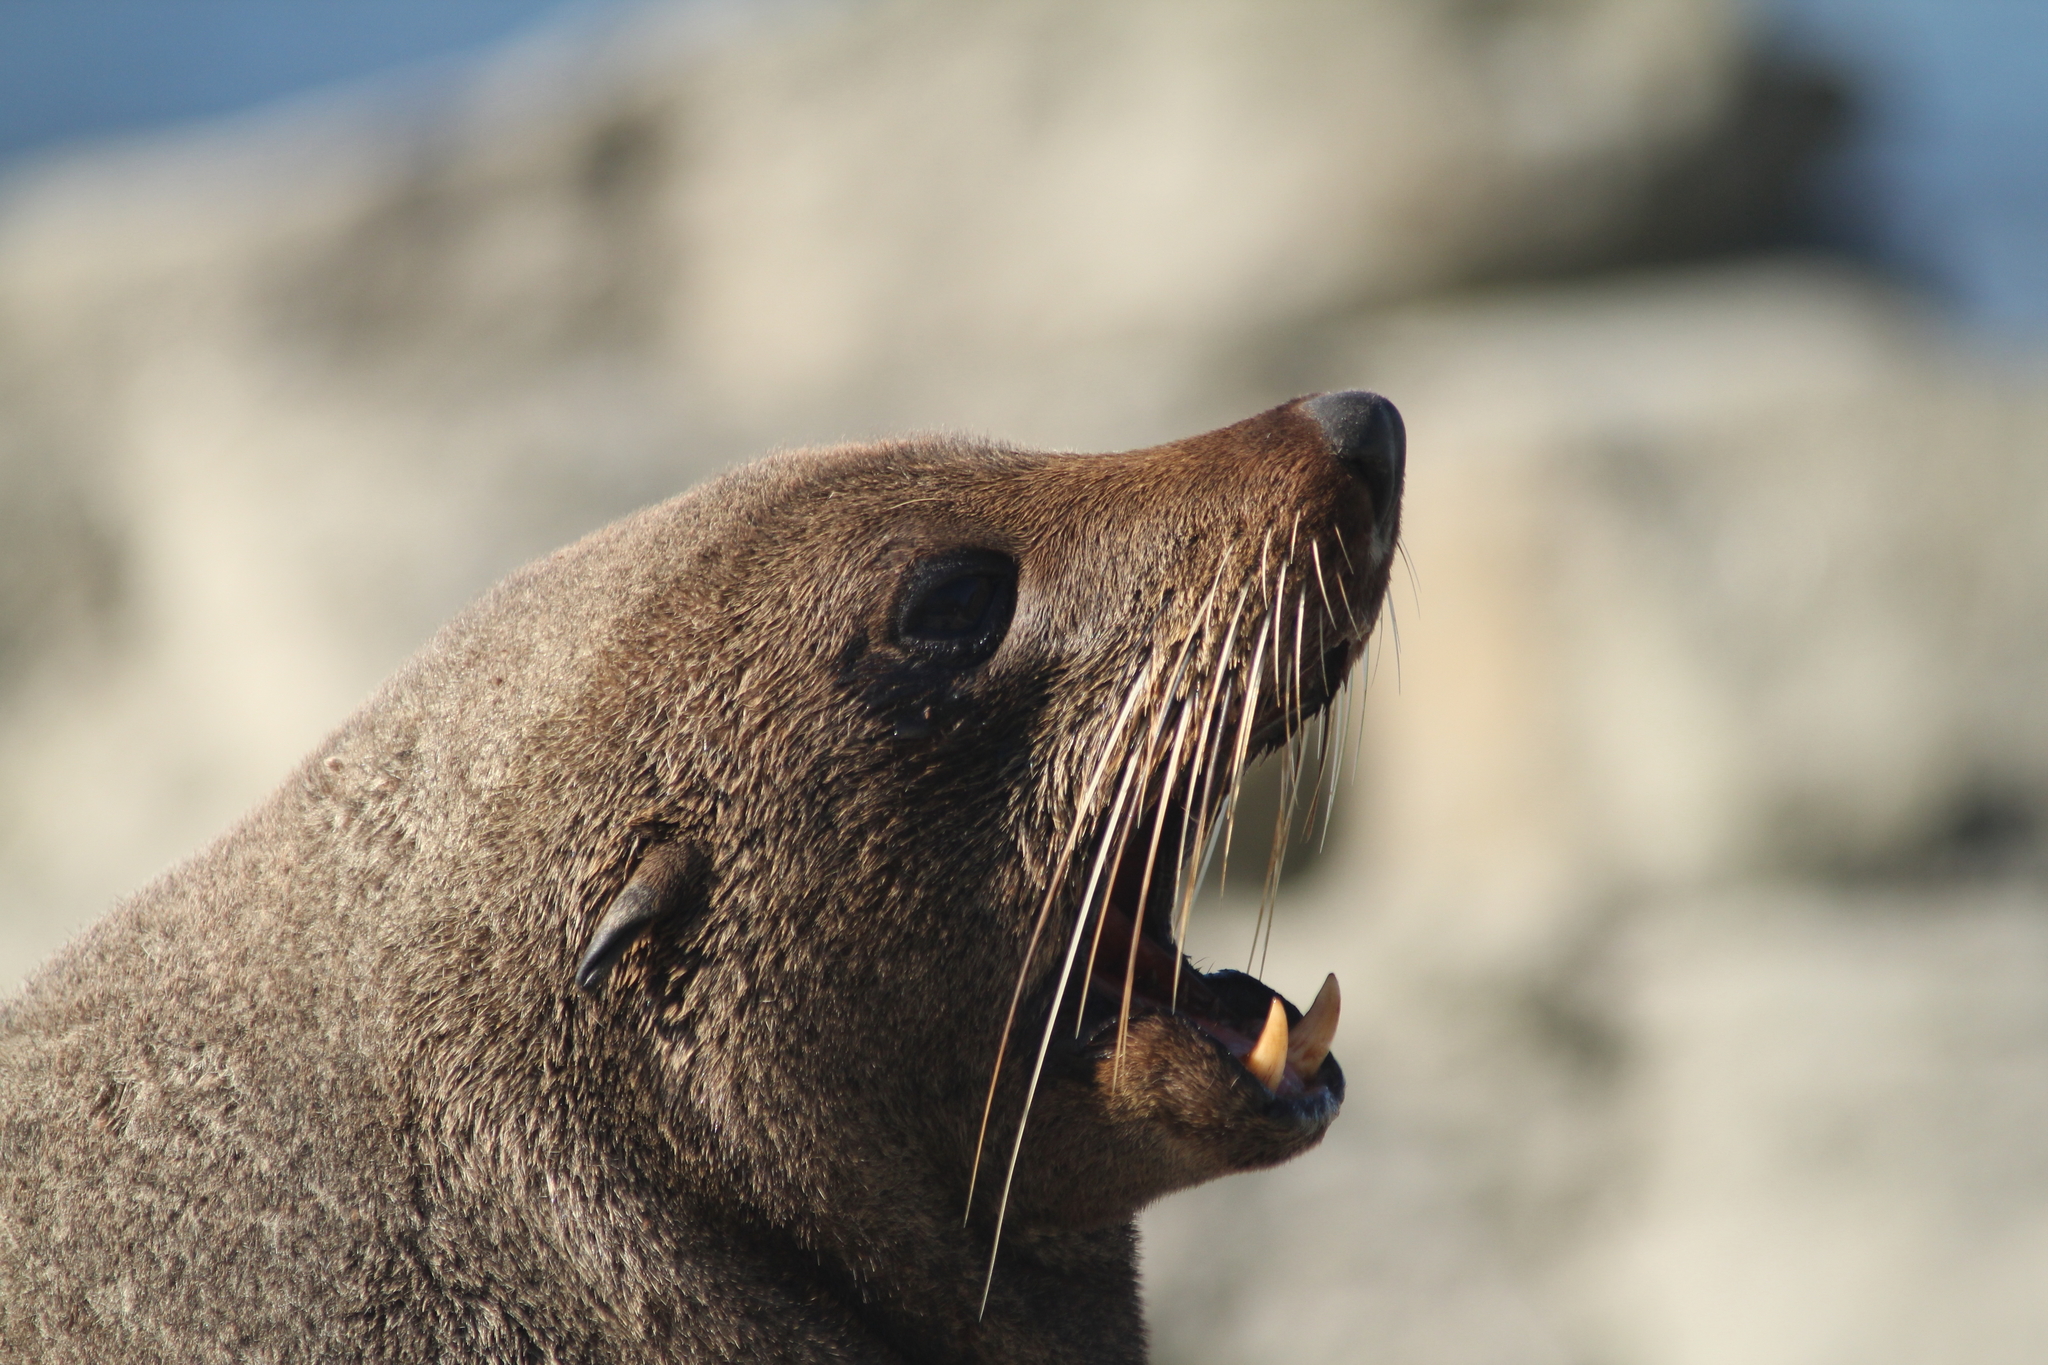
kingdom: Animalia
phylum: Chordata
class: Mammalia
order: Carnivora
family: Otariidae
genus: Arctocephalus
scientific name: Arctocephalus forsteri
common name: New zealand fur seal
